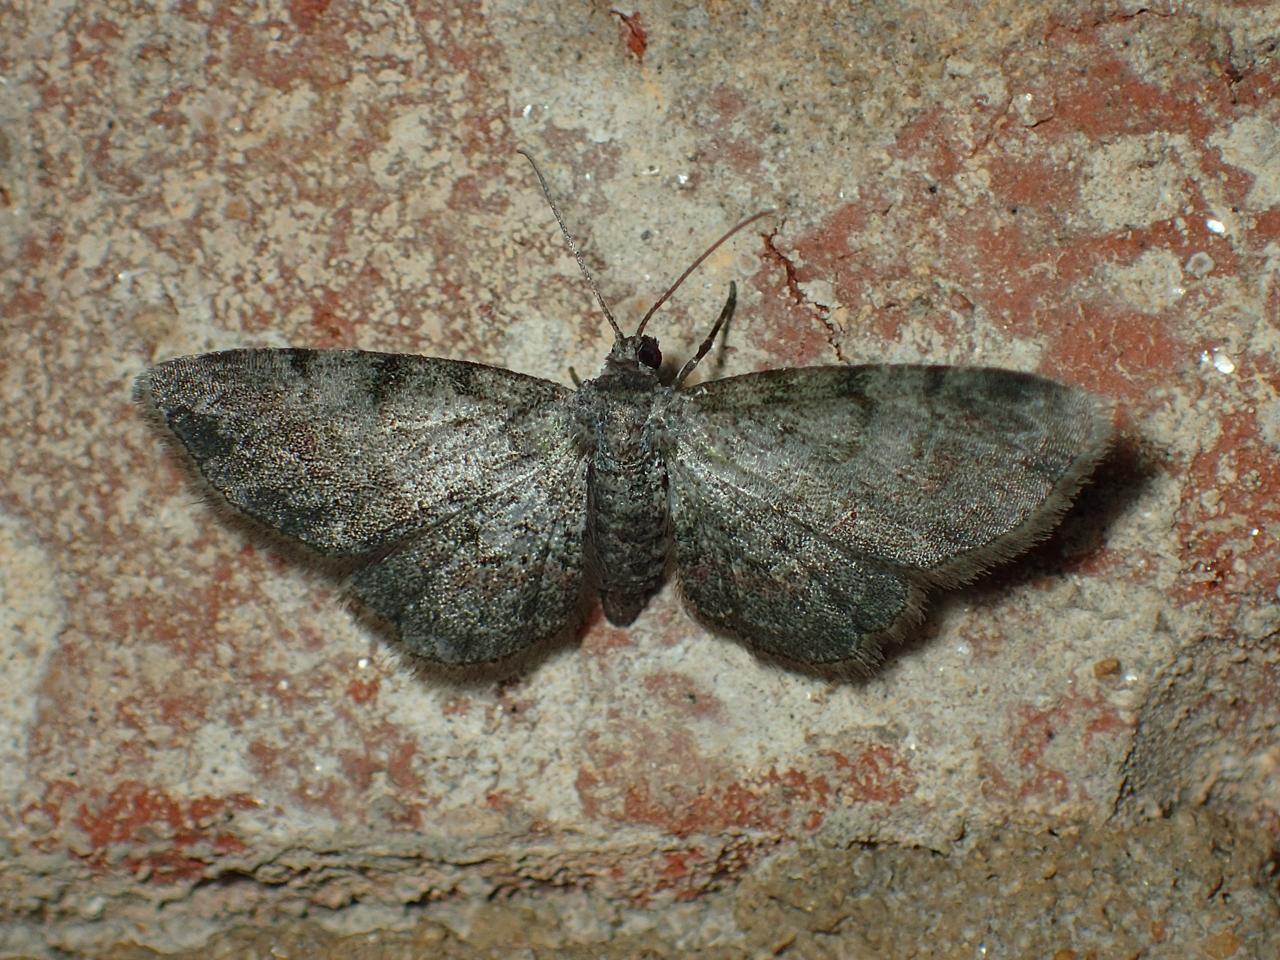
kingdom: Animalia
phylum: Arthropoda
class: Insecta
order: Lepidoptera
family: Geometridae
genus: Glenoides
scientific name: Glenoides texanaria
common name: Texas gray
